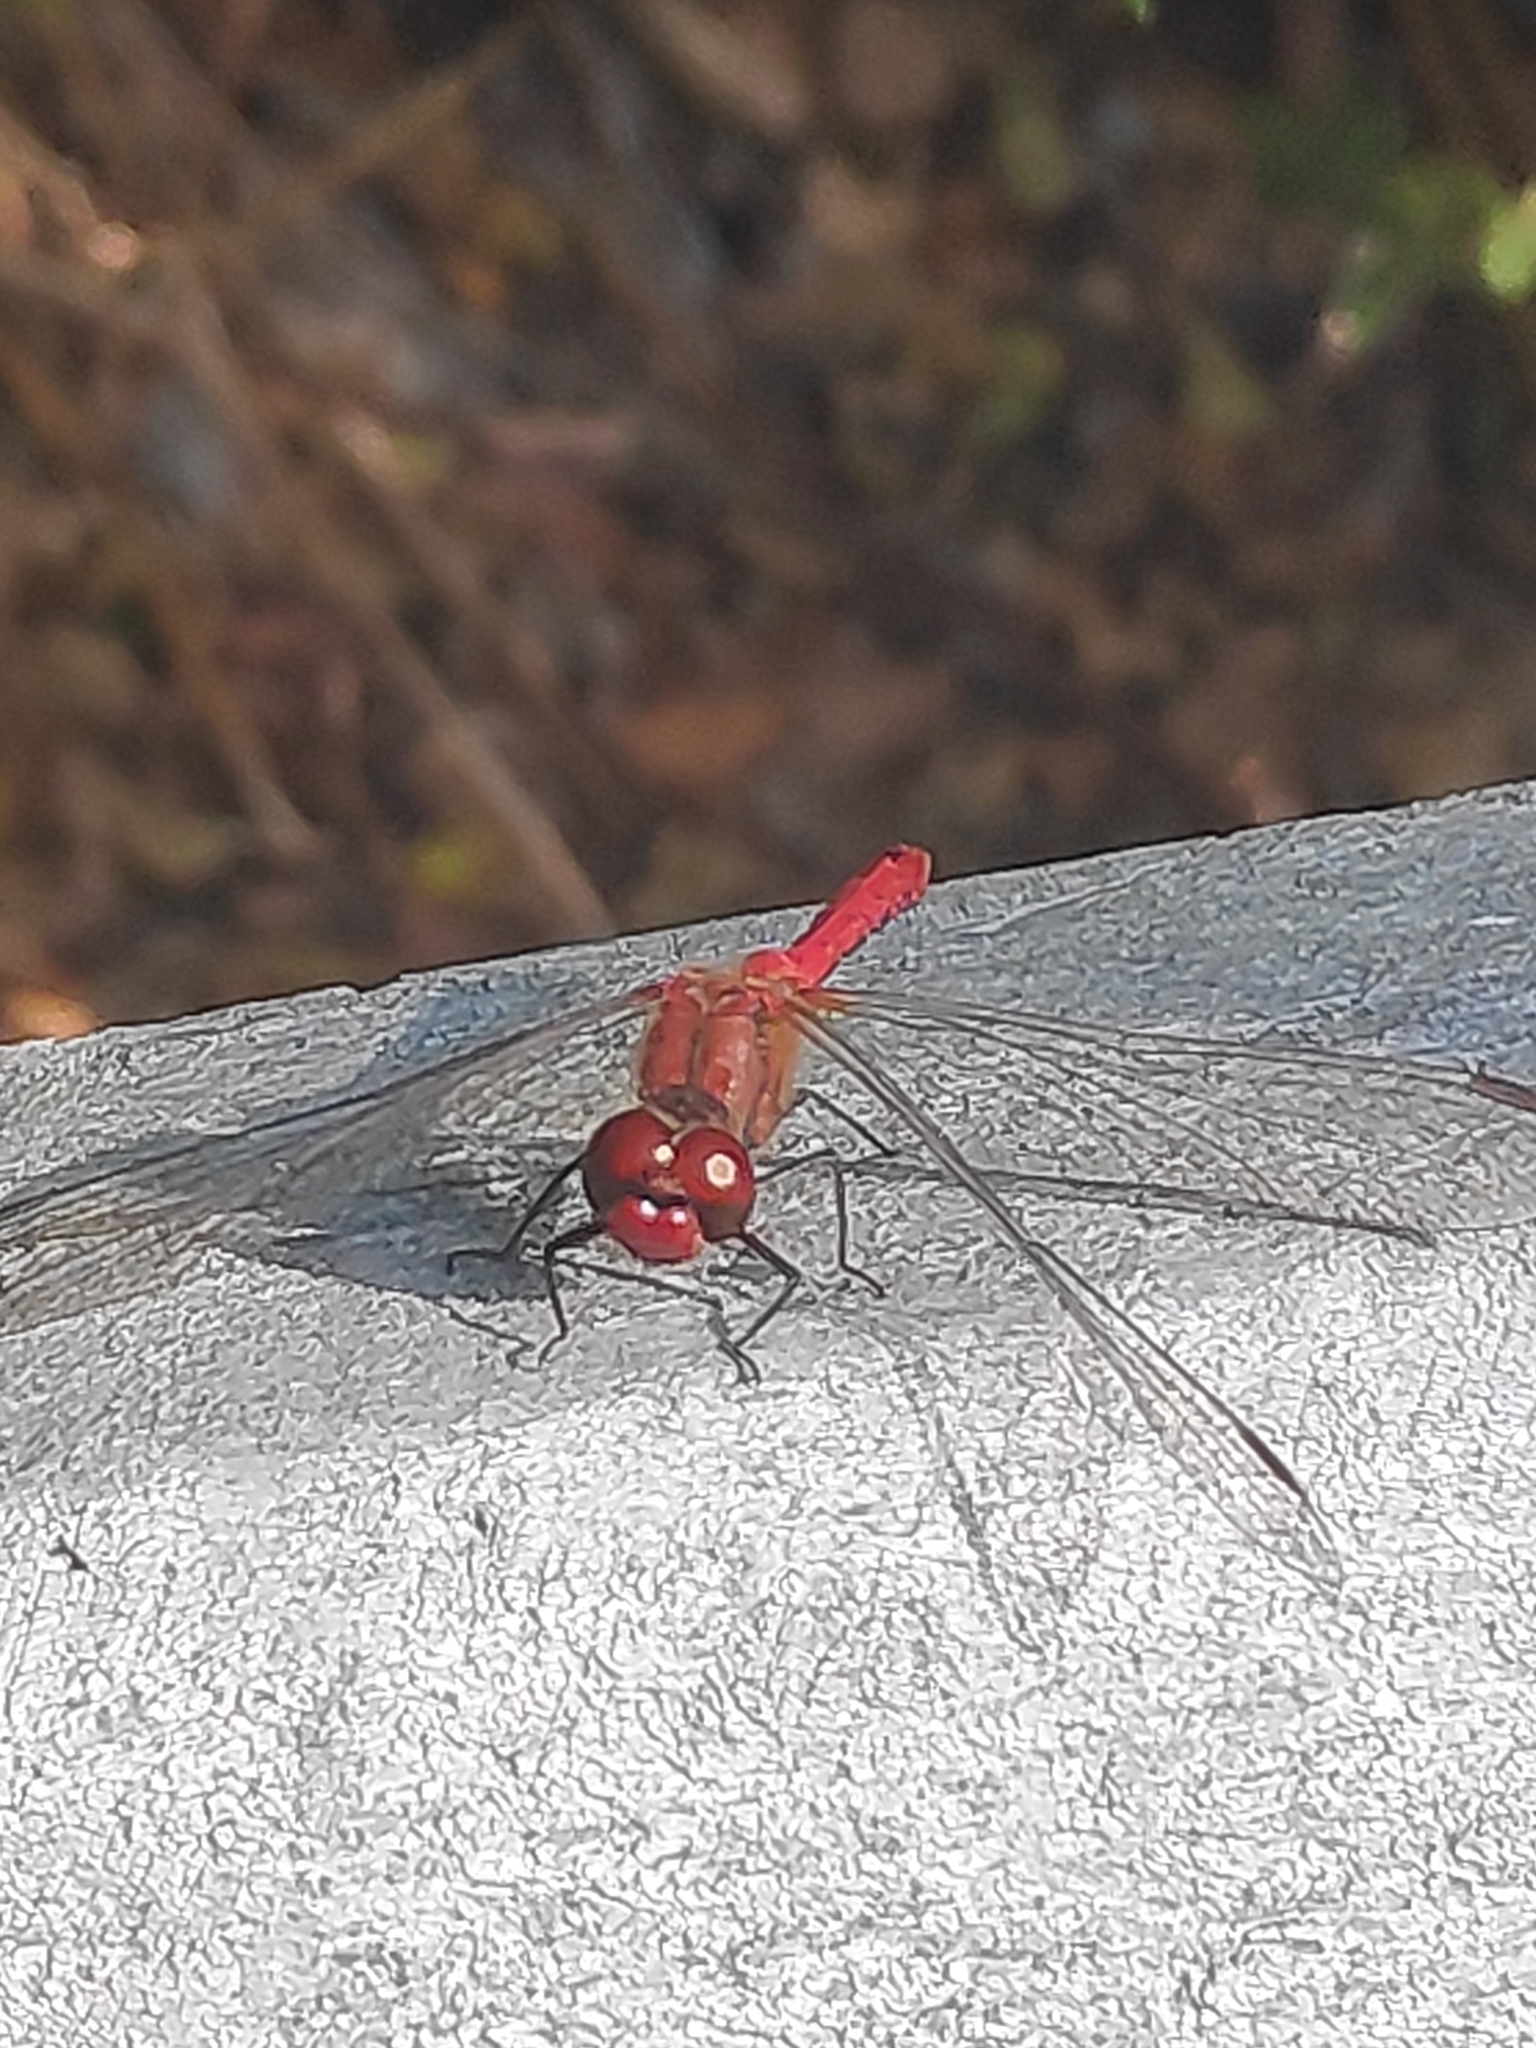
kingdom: Animalia
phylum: Arthropoda
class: Insecta
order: Odonata
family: Libellulidae
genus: Sympetrum
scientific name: Sympetrum sanguineum
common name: Ruddy darter
